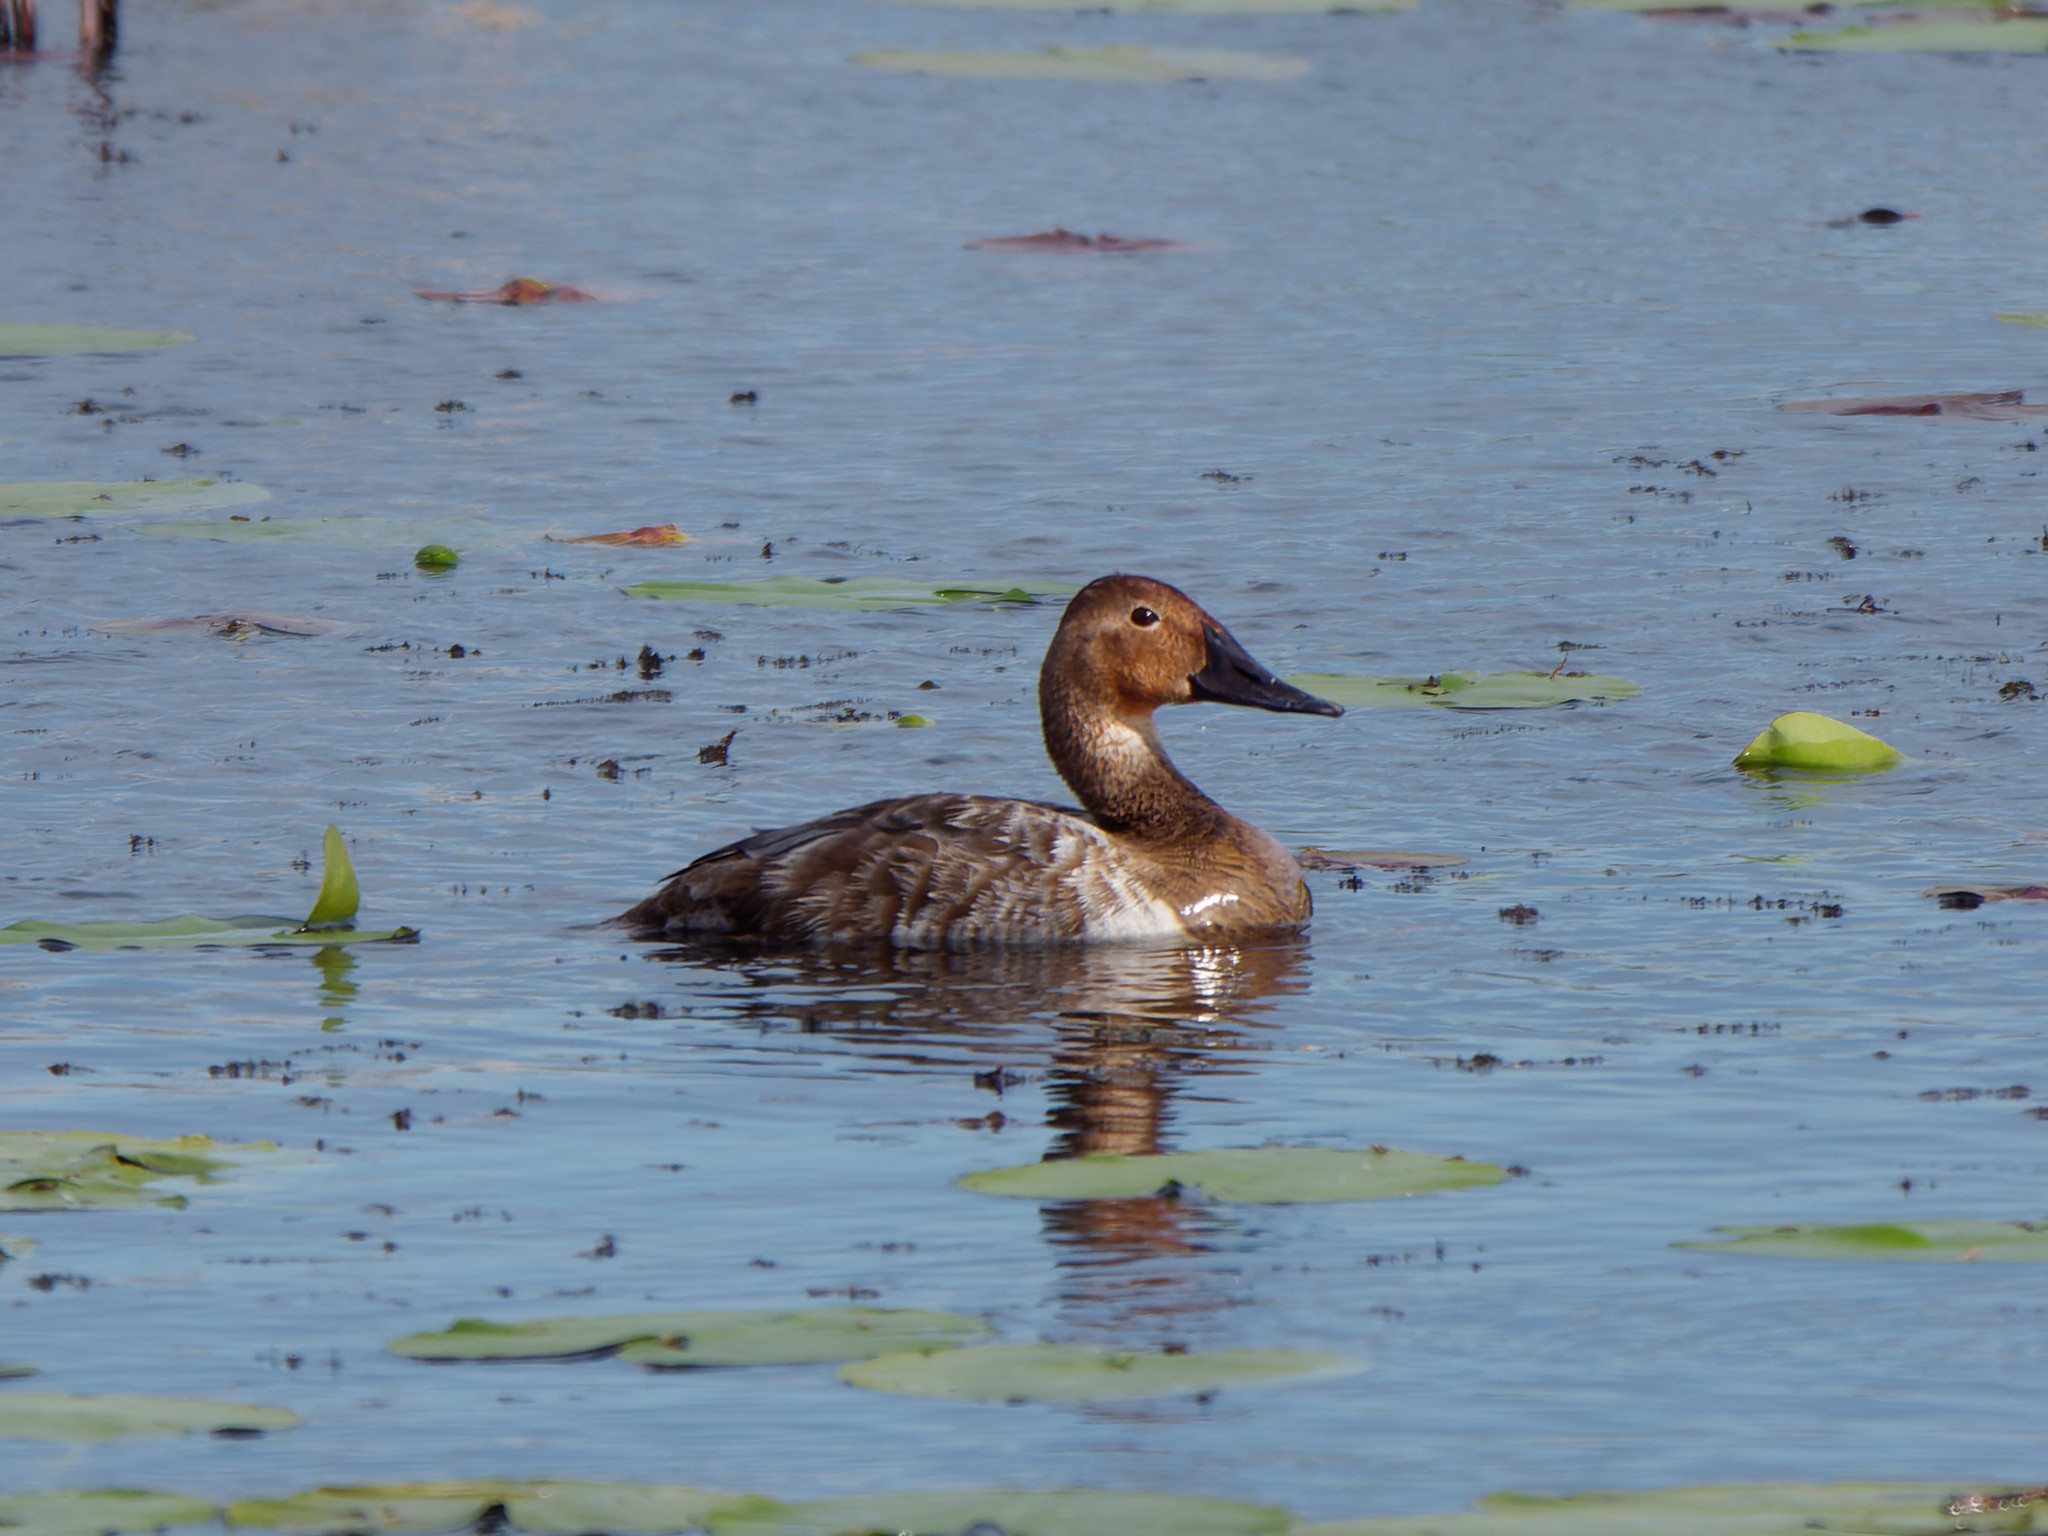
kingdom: Animalia
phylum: Chordata
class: Aves
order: Anseriformes
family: Anatidae
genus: Aythya
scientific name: Aythya valisineria
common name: Canvasback
